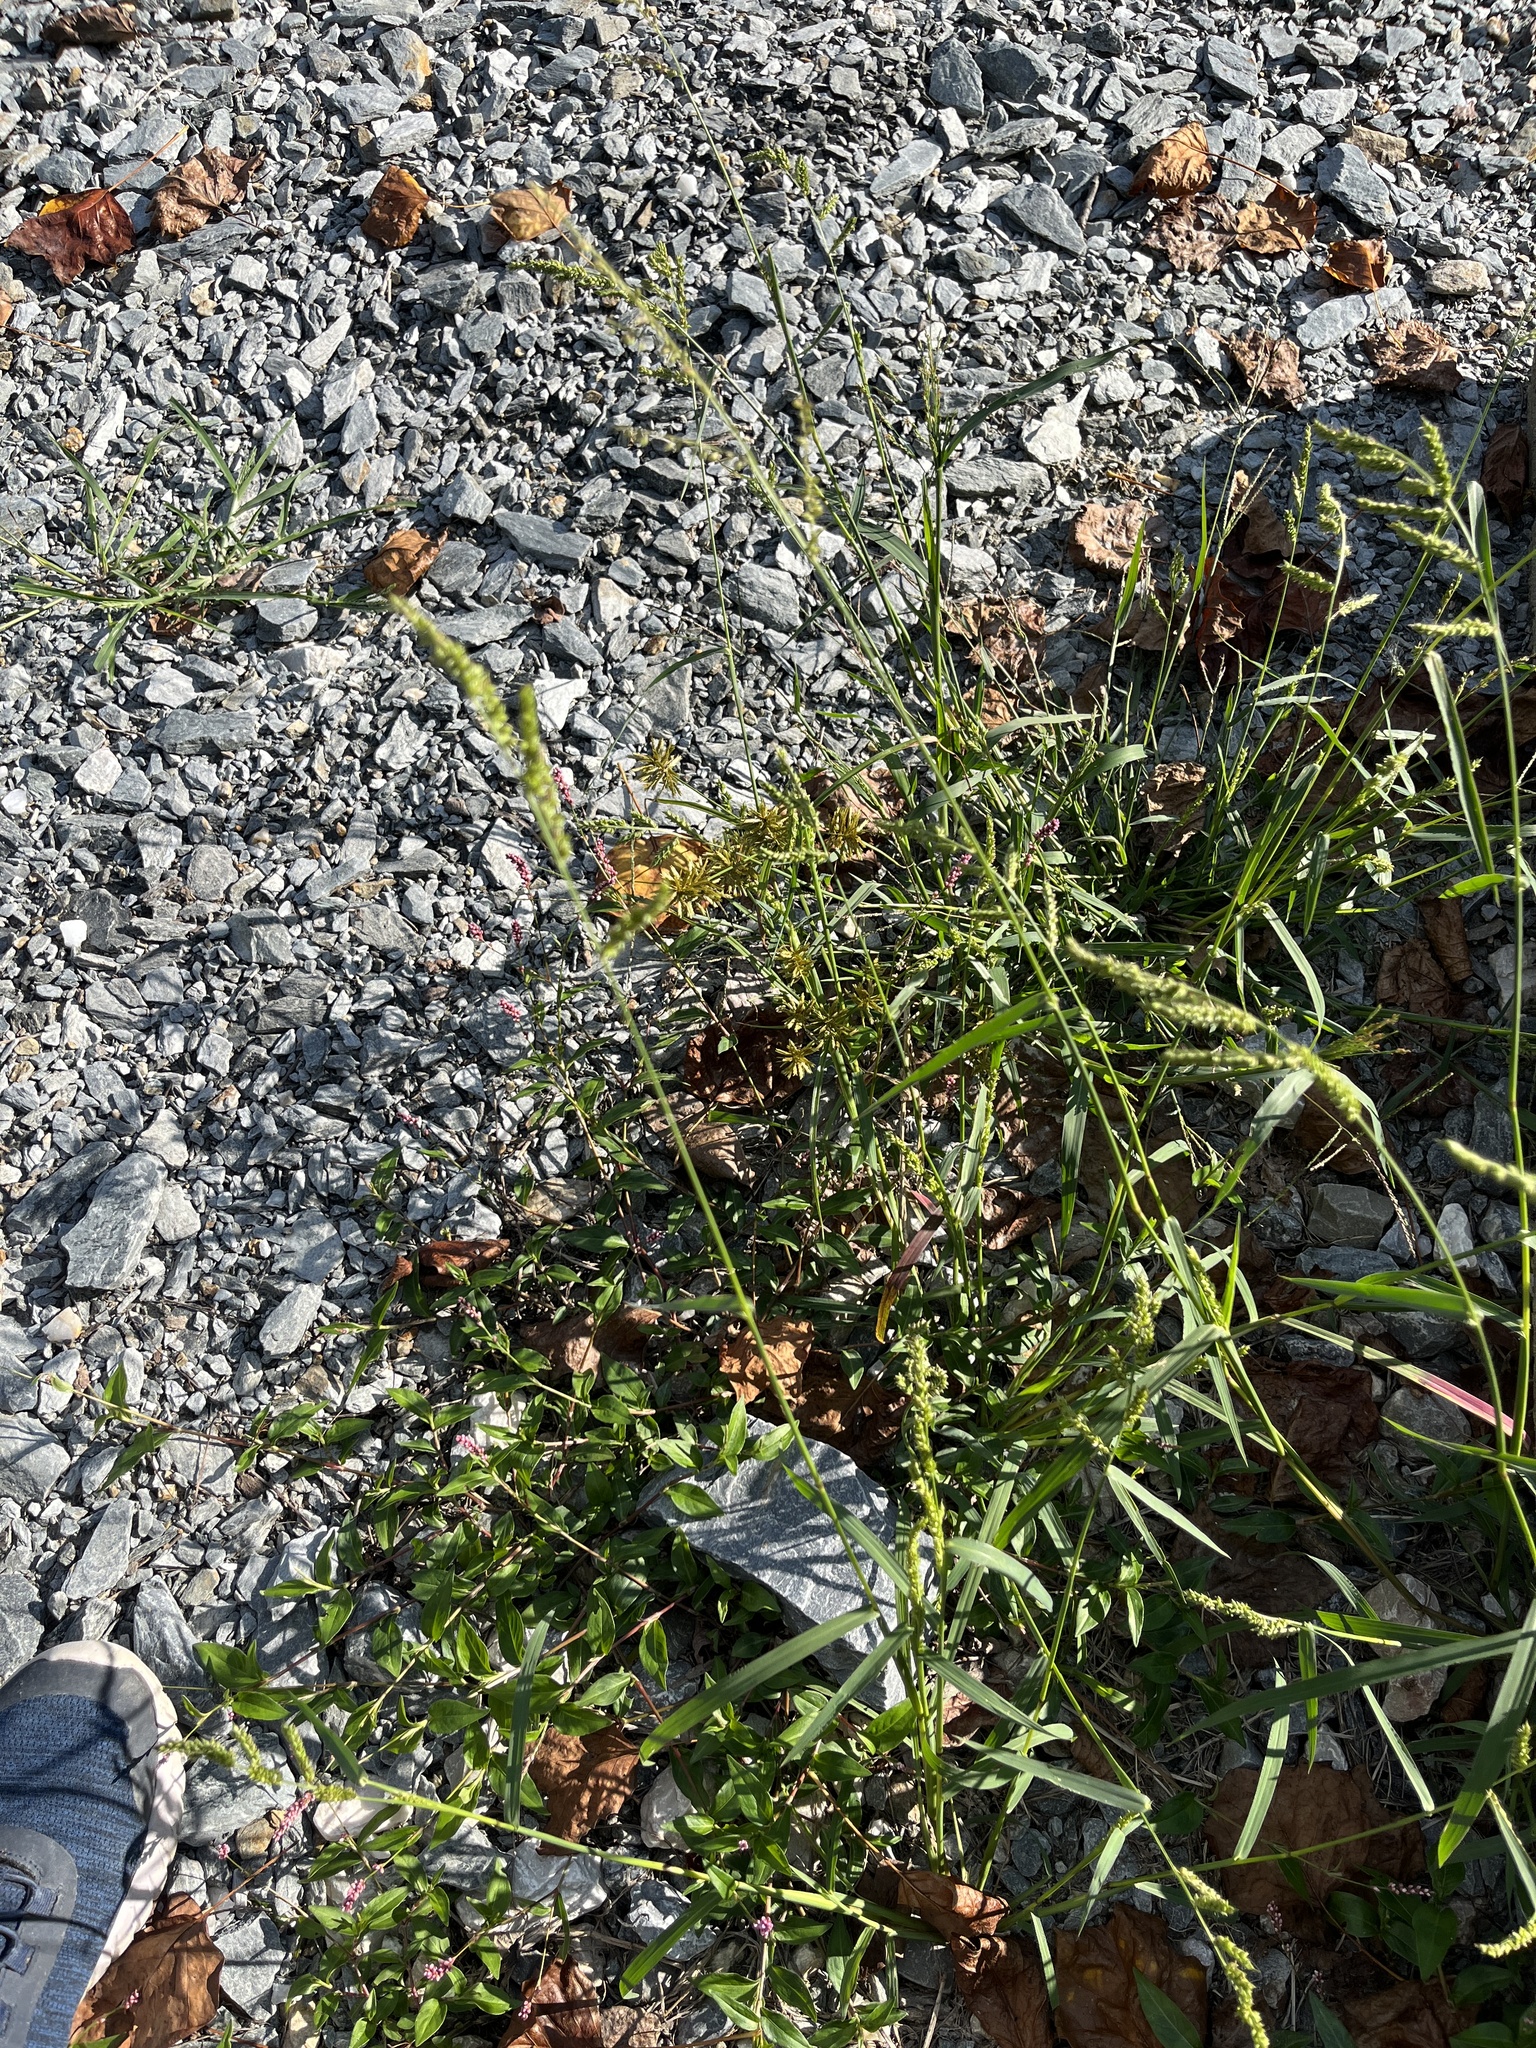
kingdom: Plantae
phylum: Tracheophyta
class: Liliopsida
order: Poales
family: Poaceae
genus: Echinochloa
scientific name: Echinochloa crus-galli
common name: Cockspur
